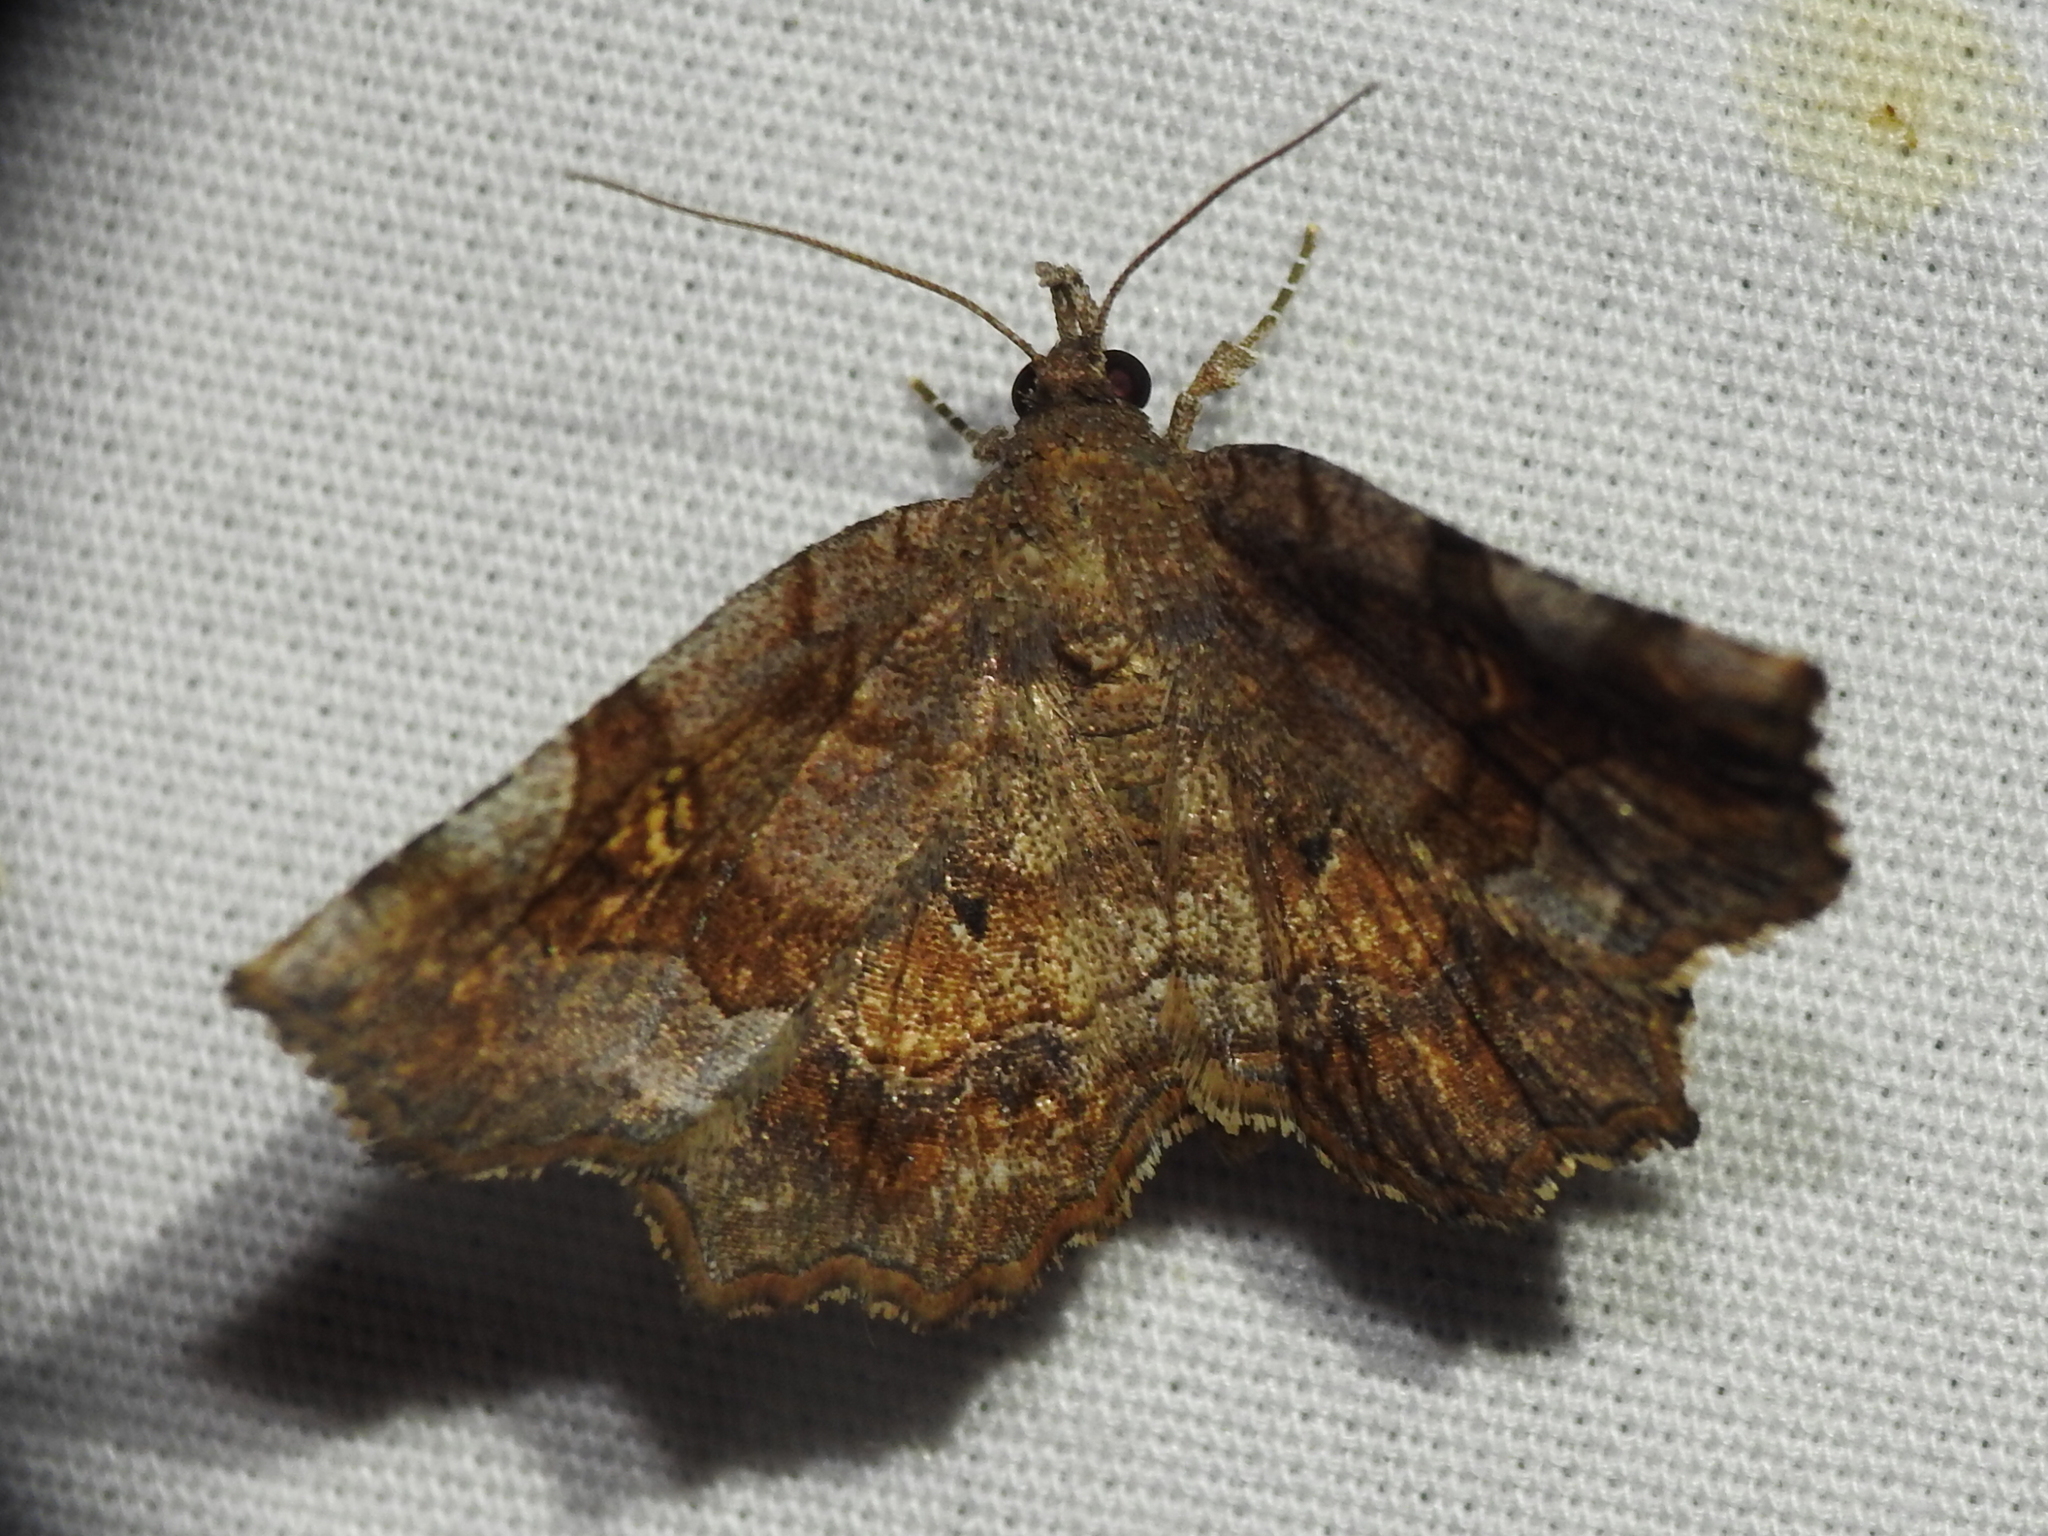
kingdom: Animalia
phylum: Arthropoda
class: Insecta
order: Lepidoptera
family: Erebidae
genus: Pangrapta
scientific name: Pangrapta decoralis
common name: Decorated owlet
